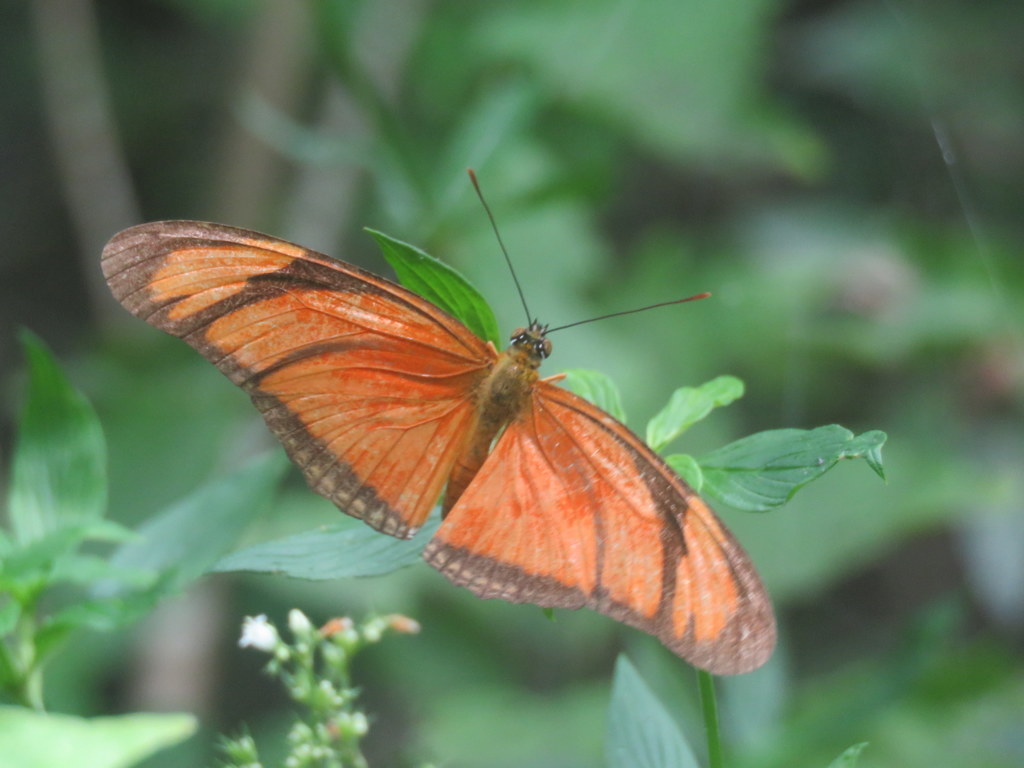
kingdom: Animalia
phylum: Arthropoda
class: Insecta
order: Lepidoptera
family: Nymphalidae
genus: Dryas
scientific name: Dryas iulia
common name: Flambeau
